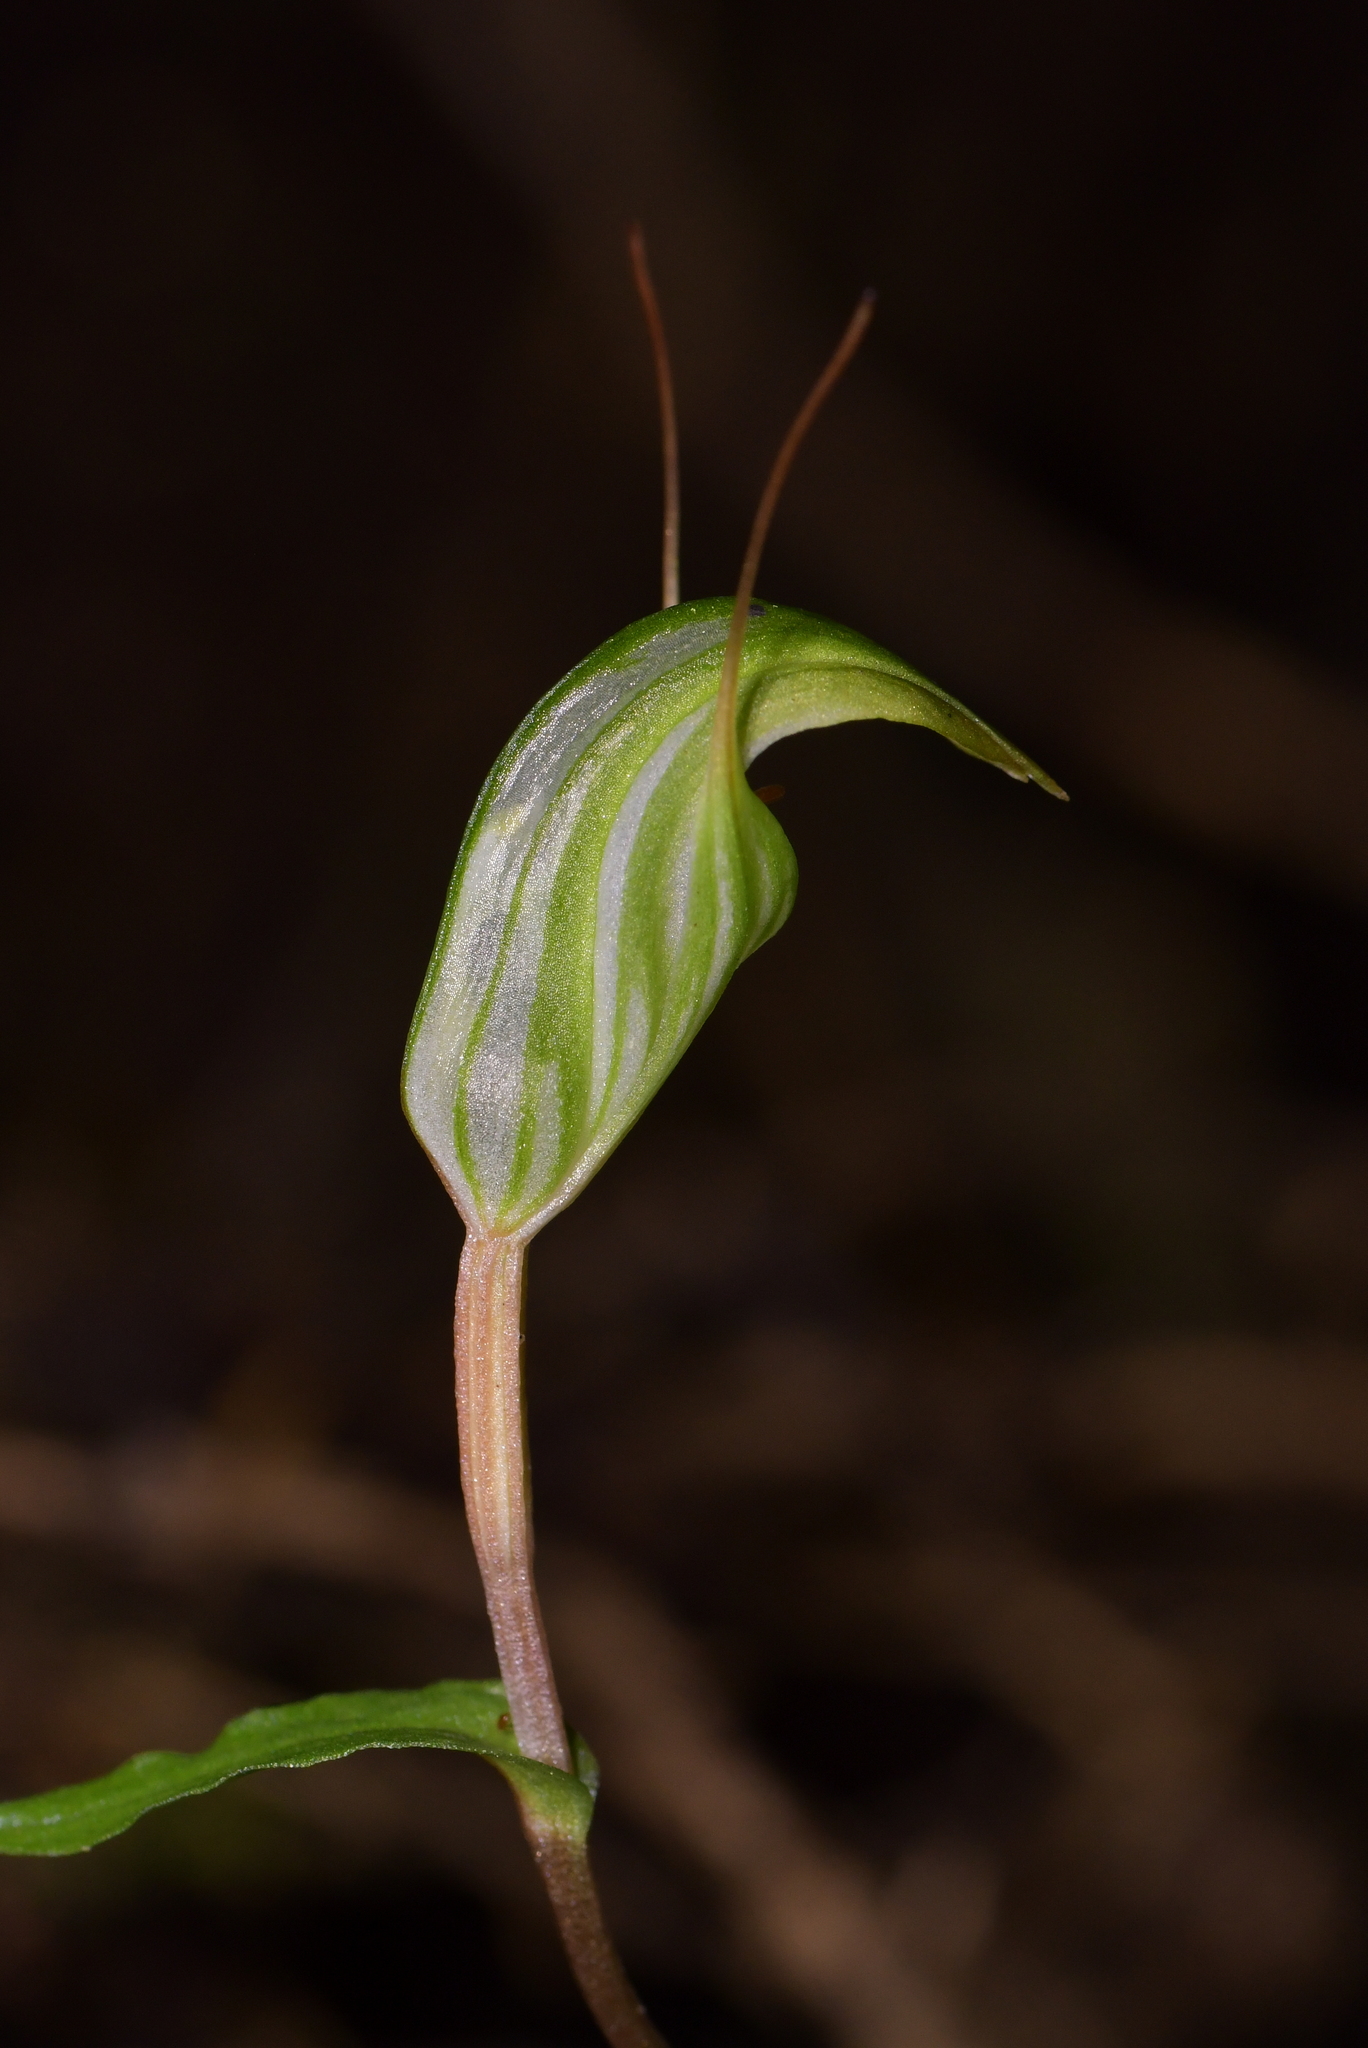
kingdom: Plantae
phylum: Tracheophyta
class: Liliopsida
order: Asparagales
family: Orchidaceae
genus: Pterostylis
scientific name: Pterostylis alobula
